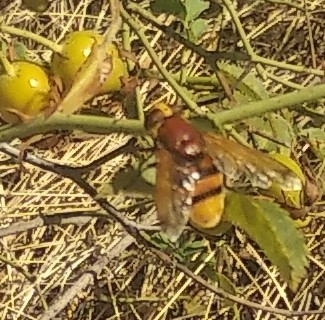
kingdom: Animalia
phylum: Arthropoda
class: Insecta
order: Diptera
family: Syrphidae
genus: Volucella
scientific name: Volucella zonaria
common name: Hornet hoverfly
